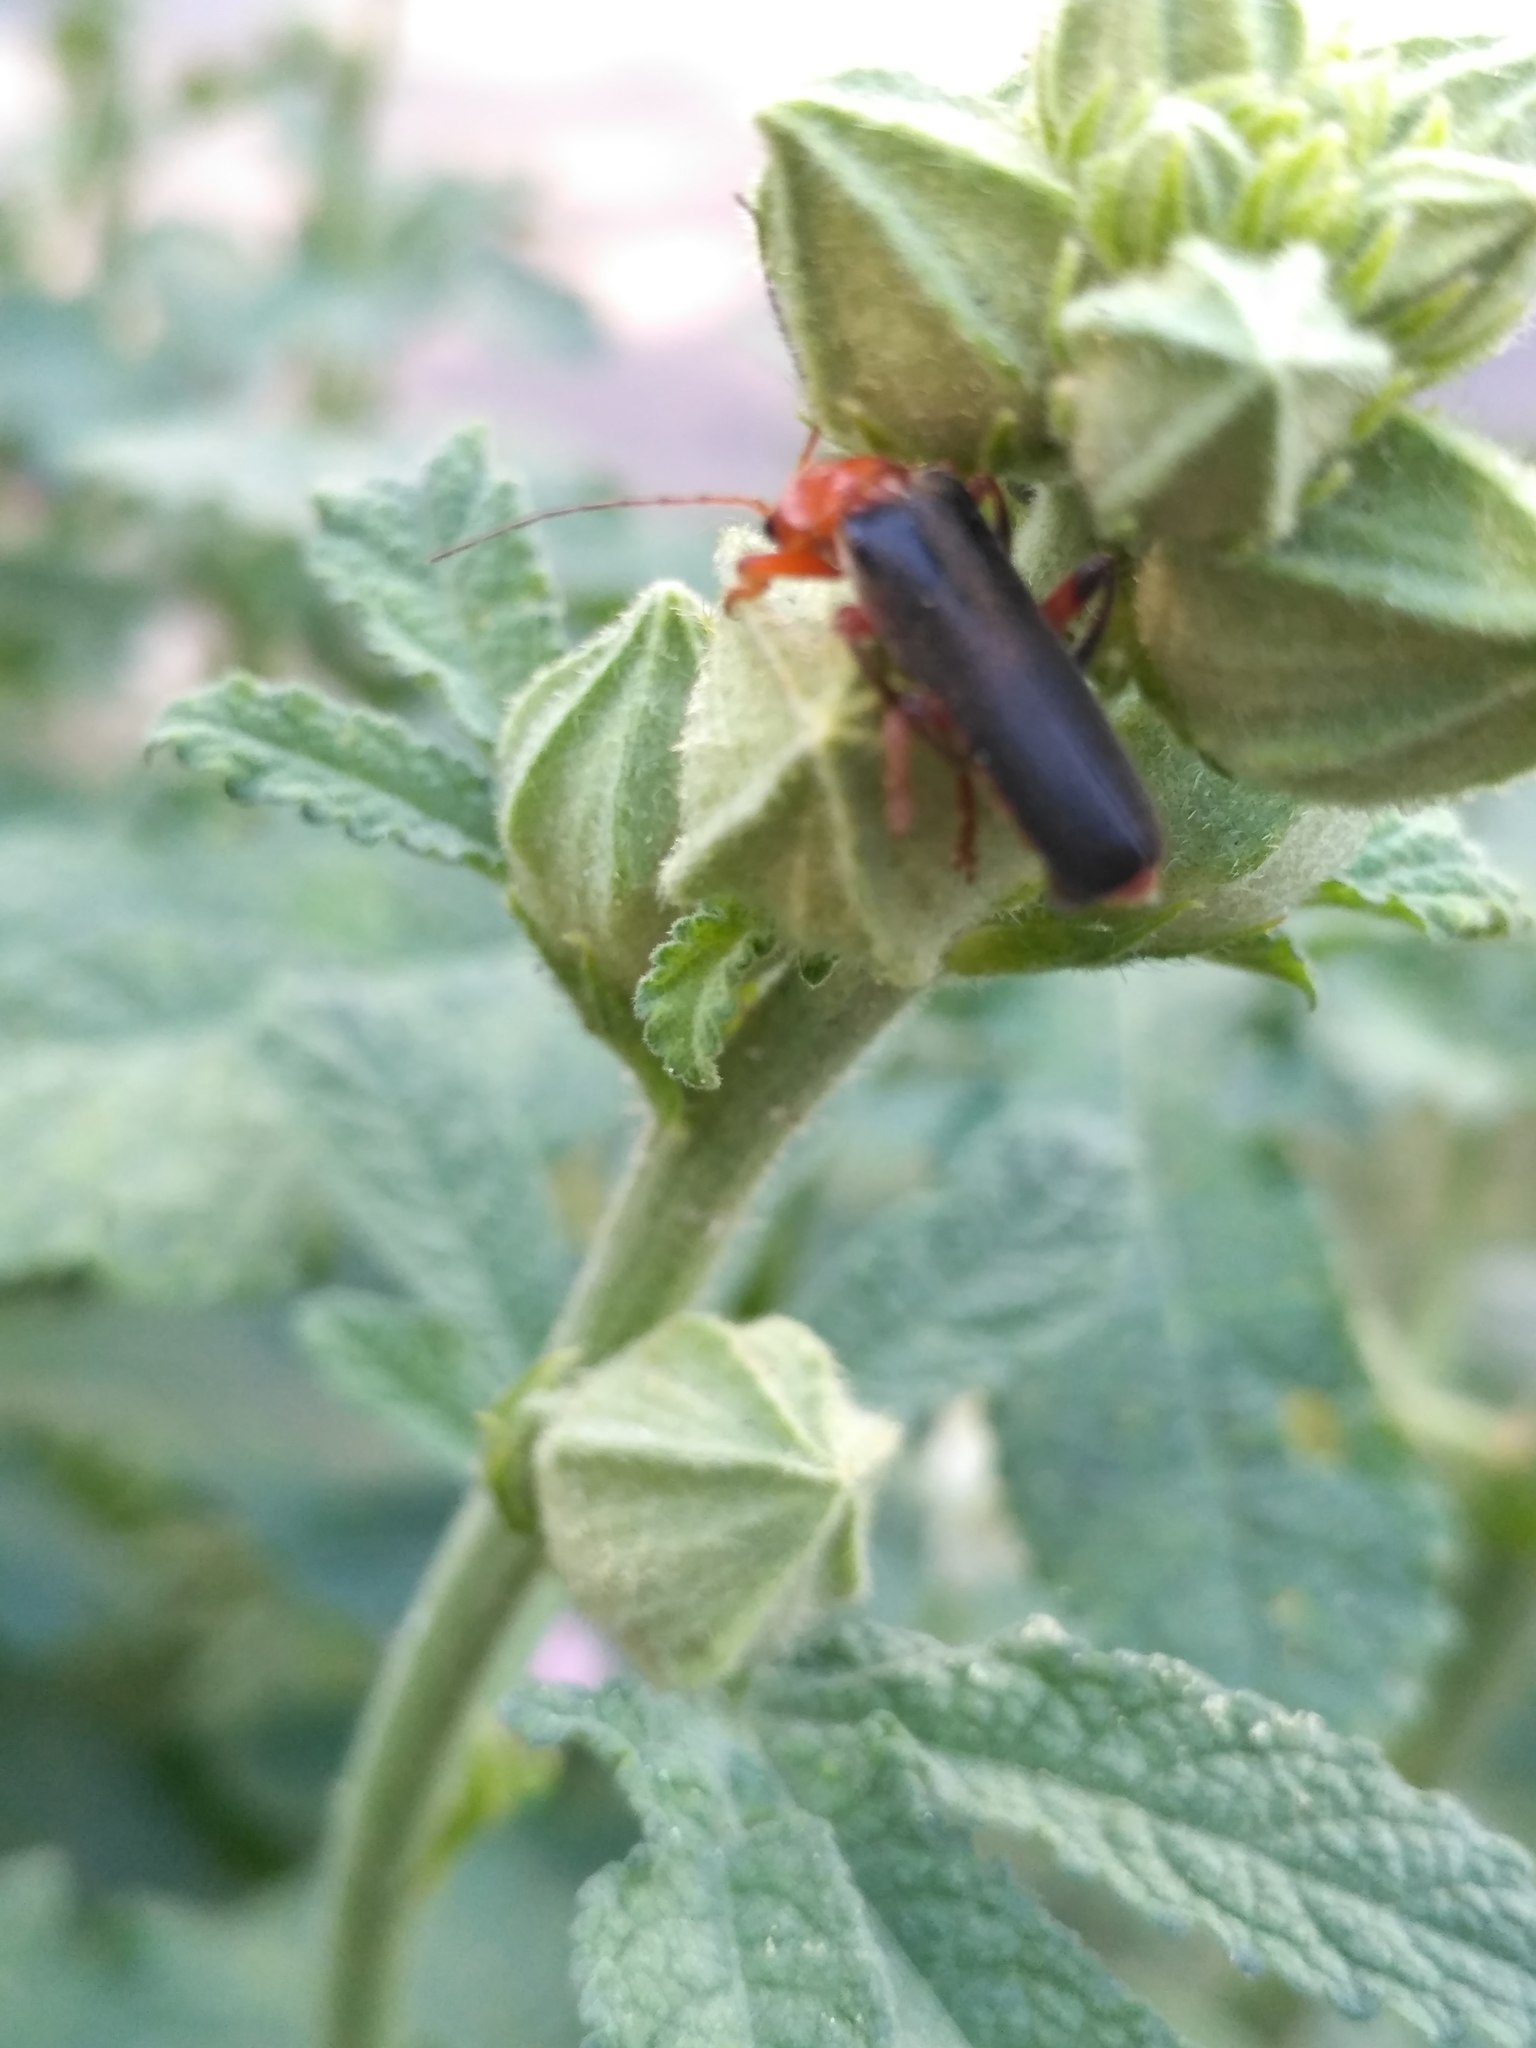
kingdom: Animalia
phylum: Arthropoda
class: Insecta
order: Coleoptera
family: Cantharidae
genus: Cantharis
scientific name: Cantharis livida
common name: Livid soldier beetle
